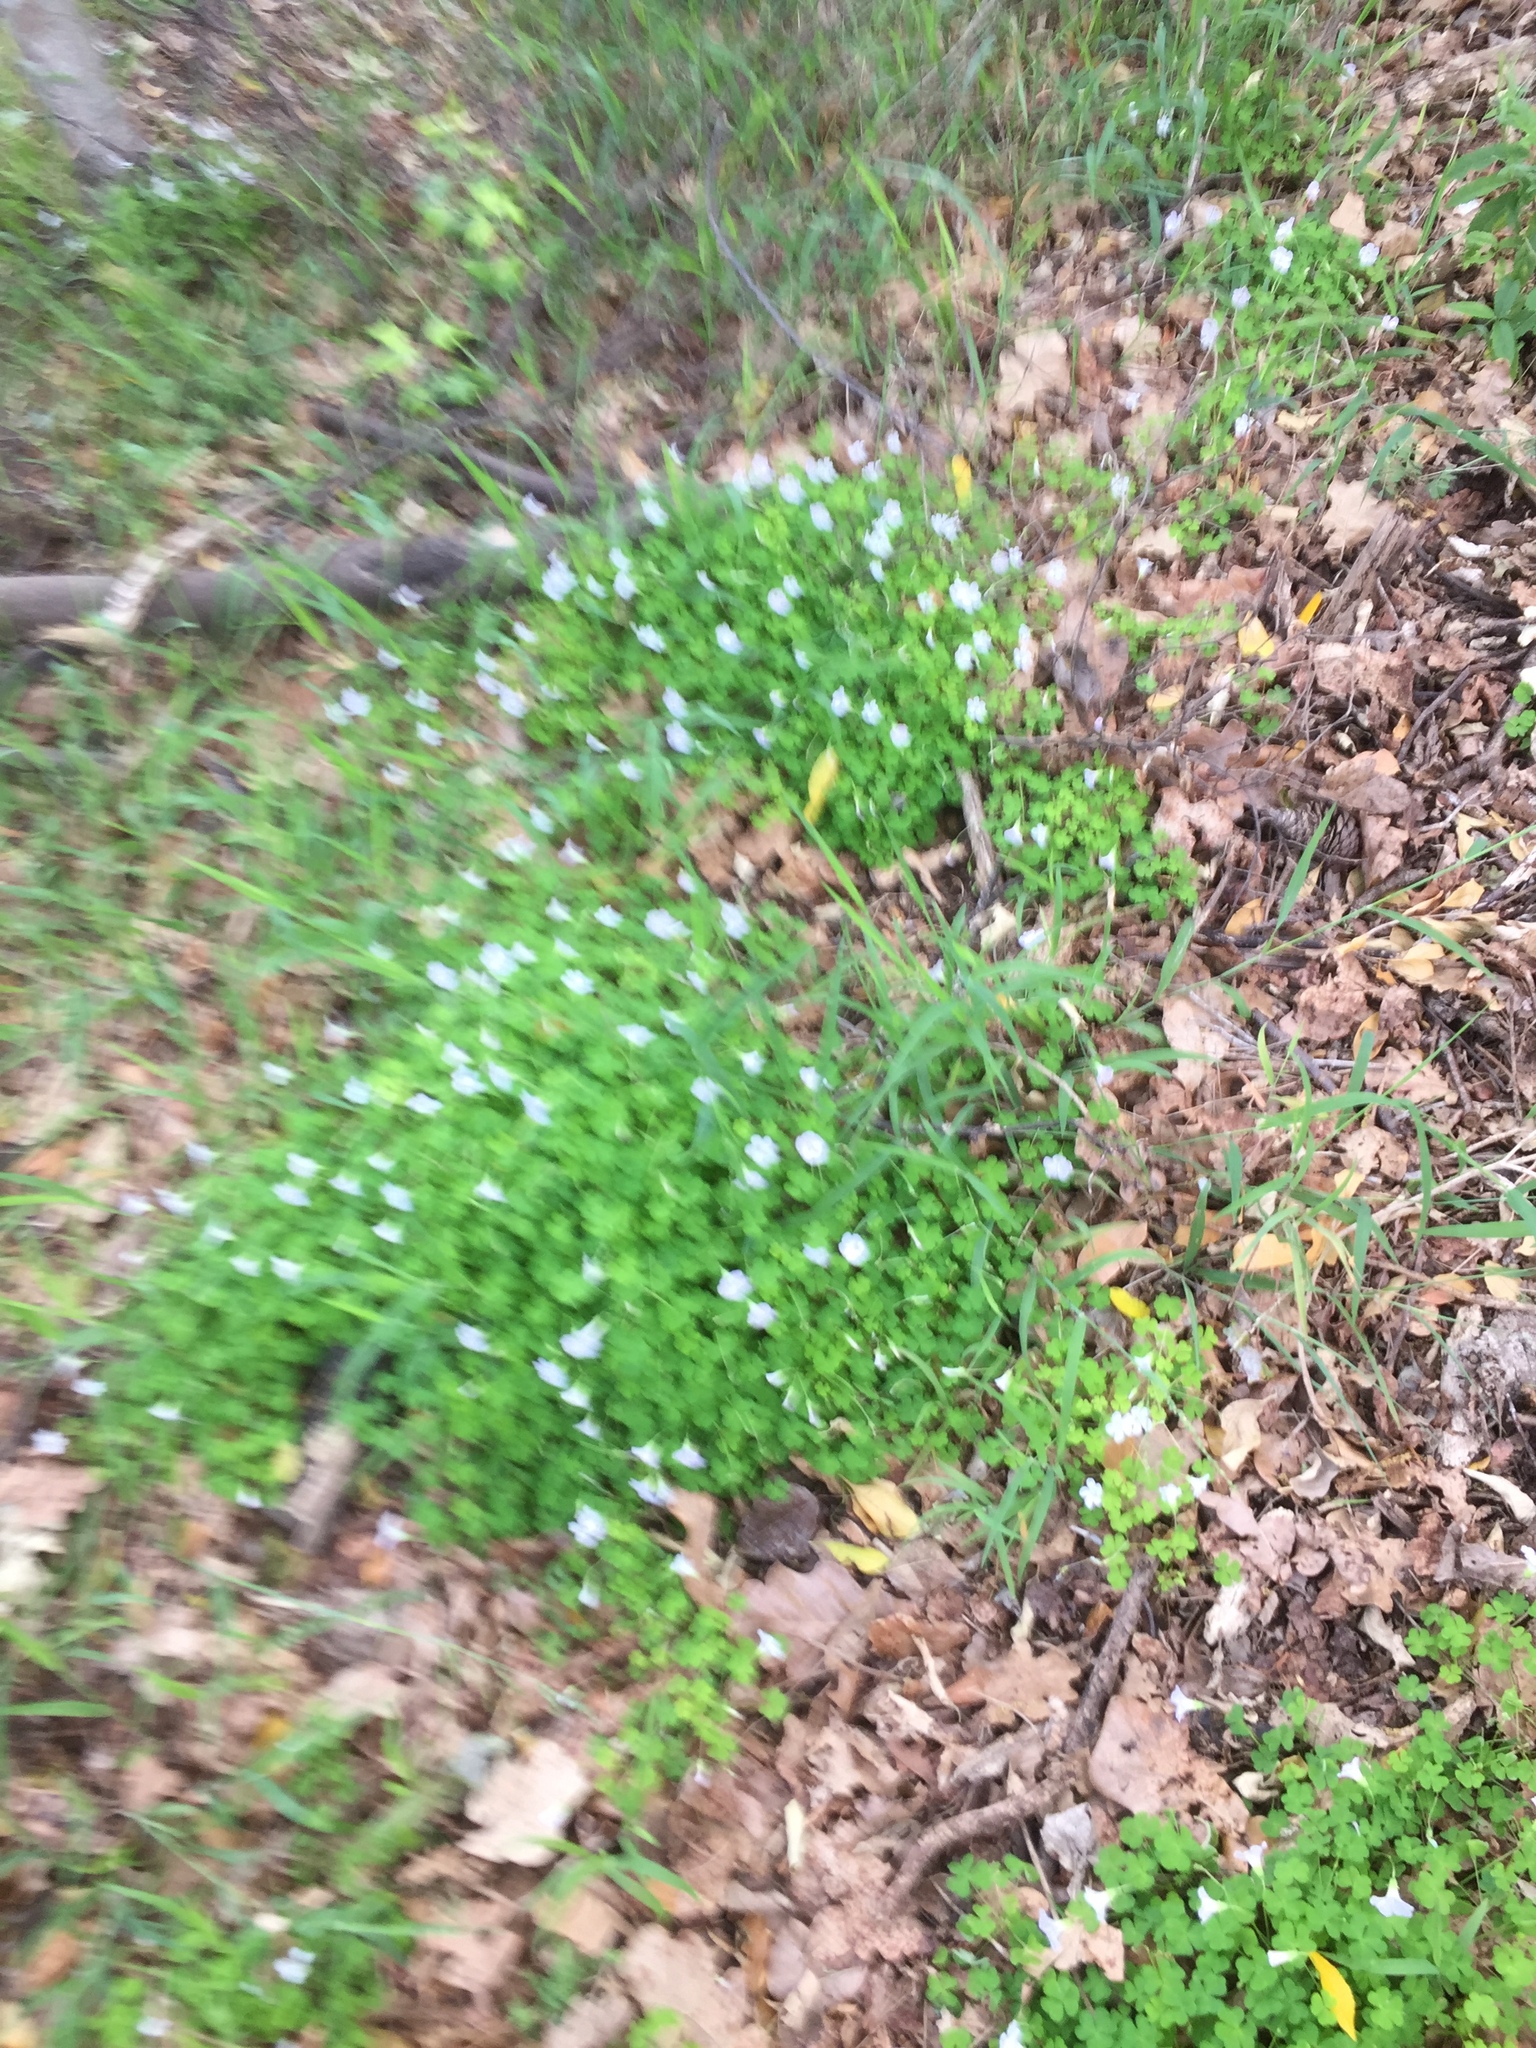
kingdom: Plantae
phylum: Tracheophyta
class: Magnoliopsida
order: Oxalidales
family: Oxalidaceae
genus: Oxalis
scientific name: Oxalis incarnata
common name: Pale pink-sorrel
